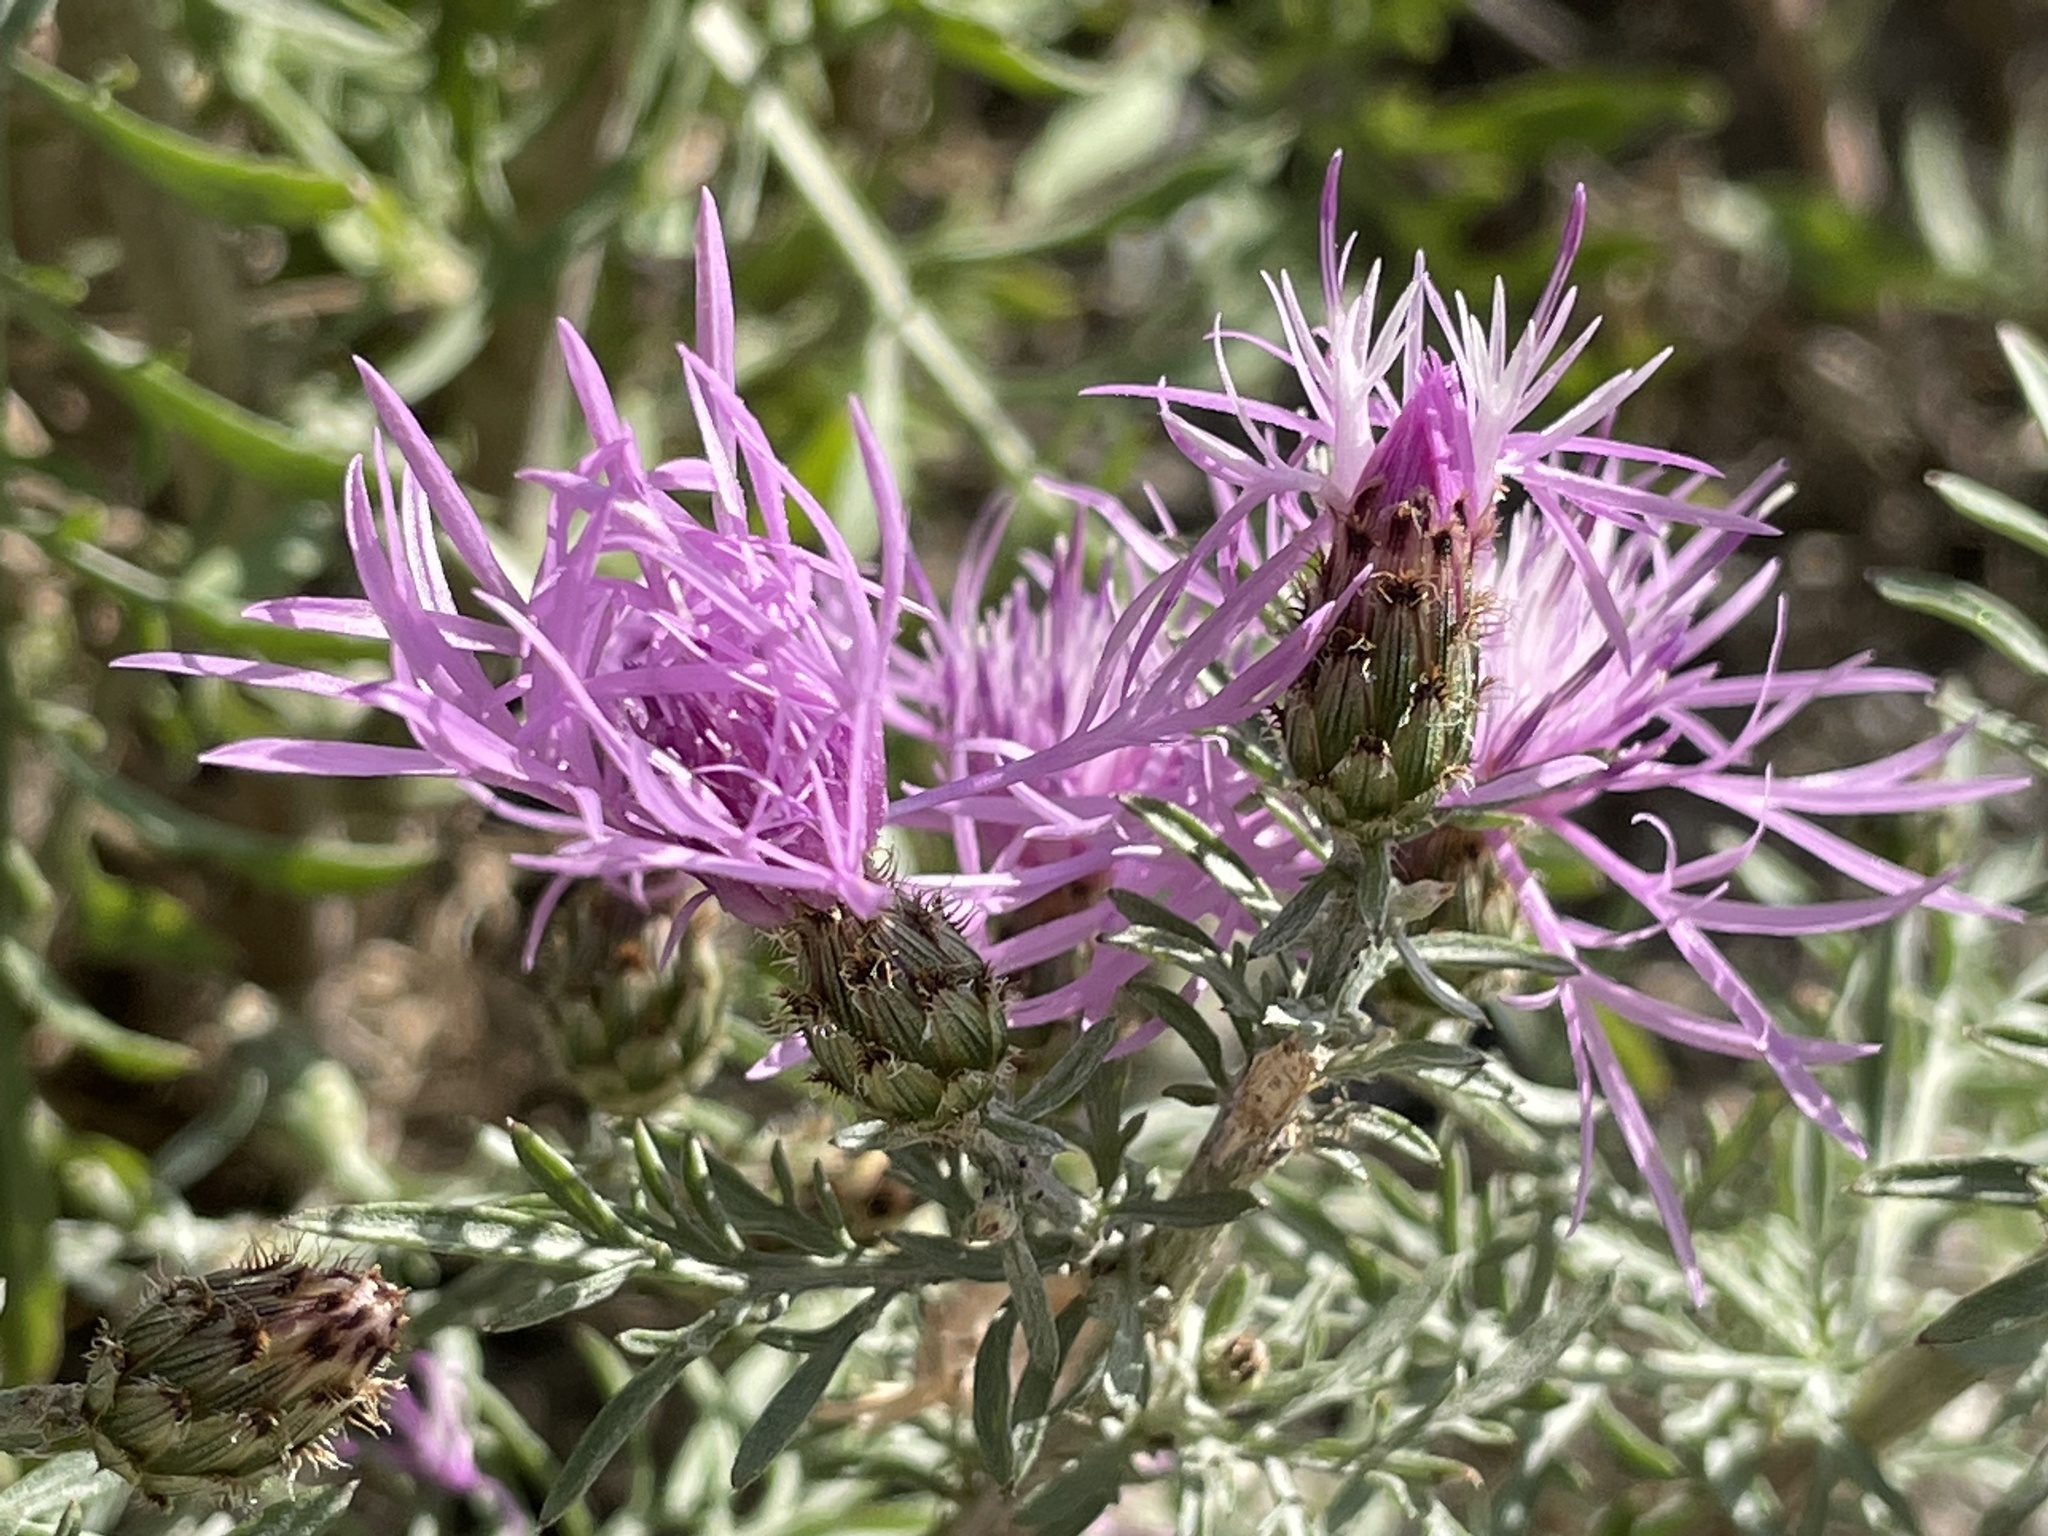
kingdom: Plantae
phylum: Tracheophyta
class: Magnoliopsida
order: Asterales
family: Asteraceae
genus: Centaurea
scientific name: Centaurea stoebe
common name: Spotted knapweed
